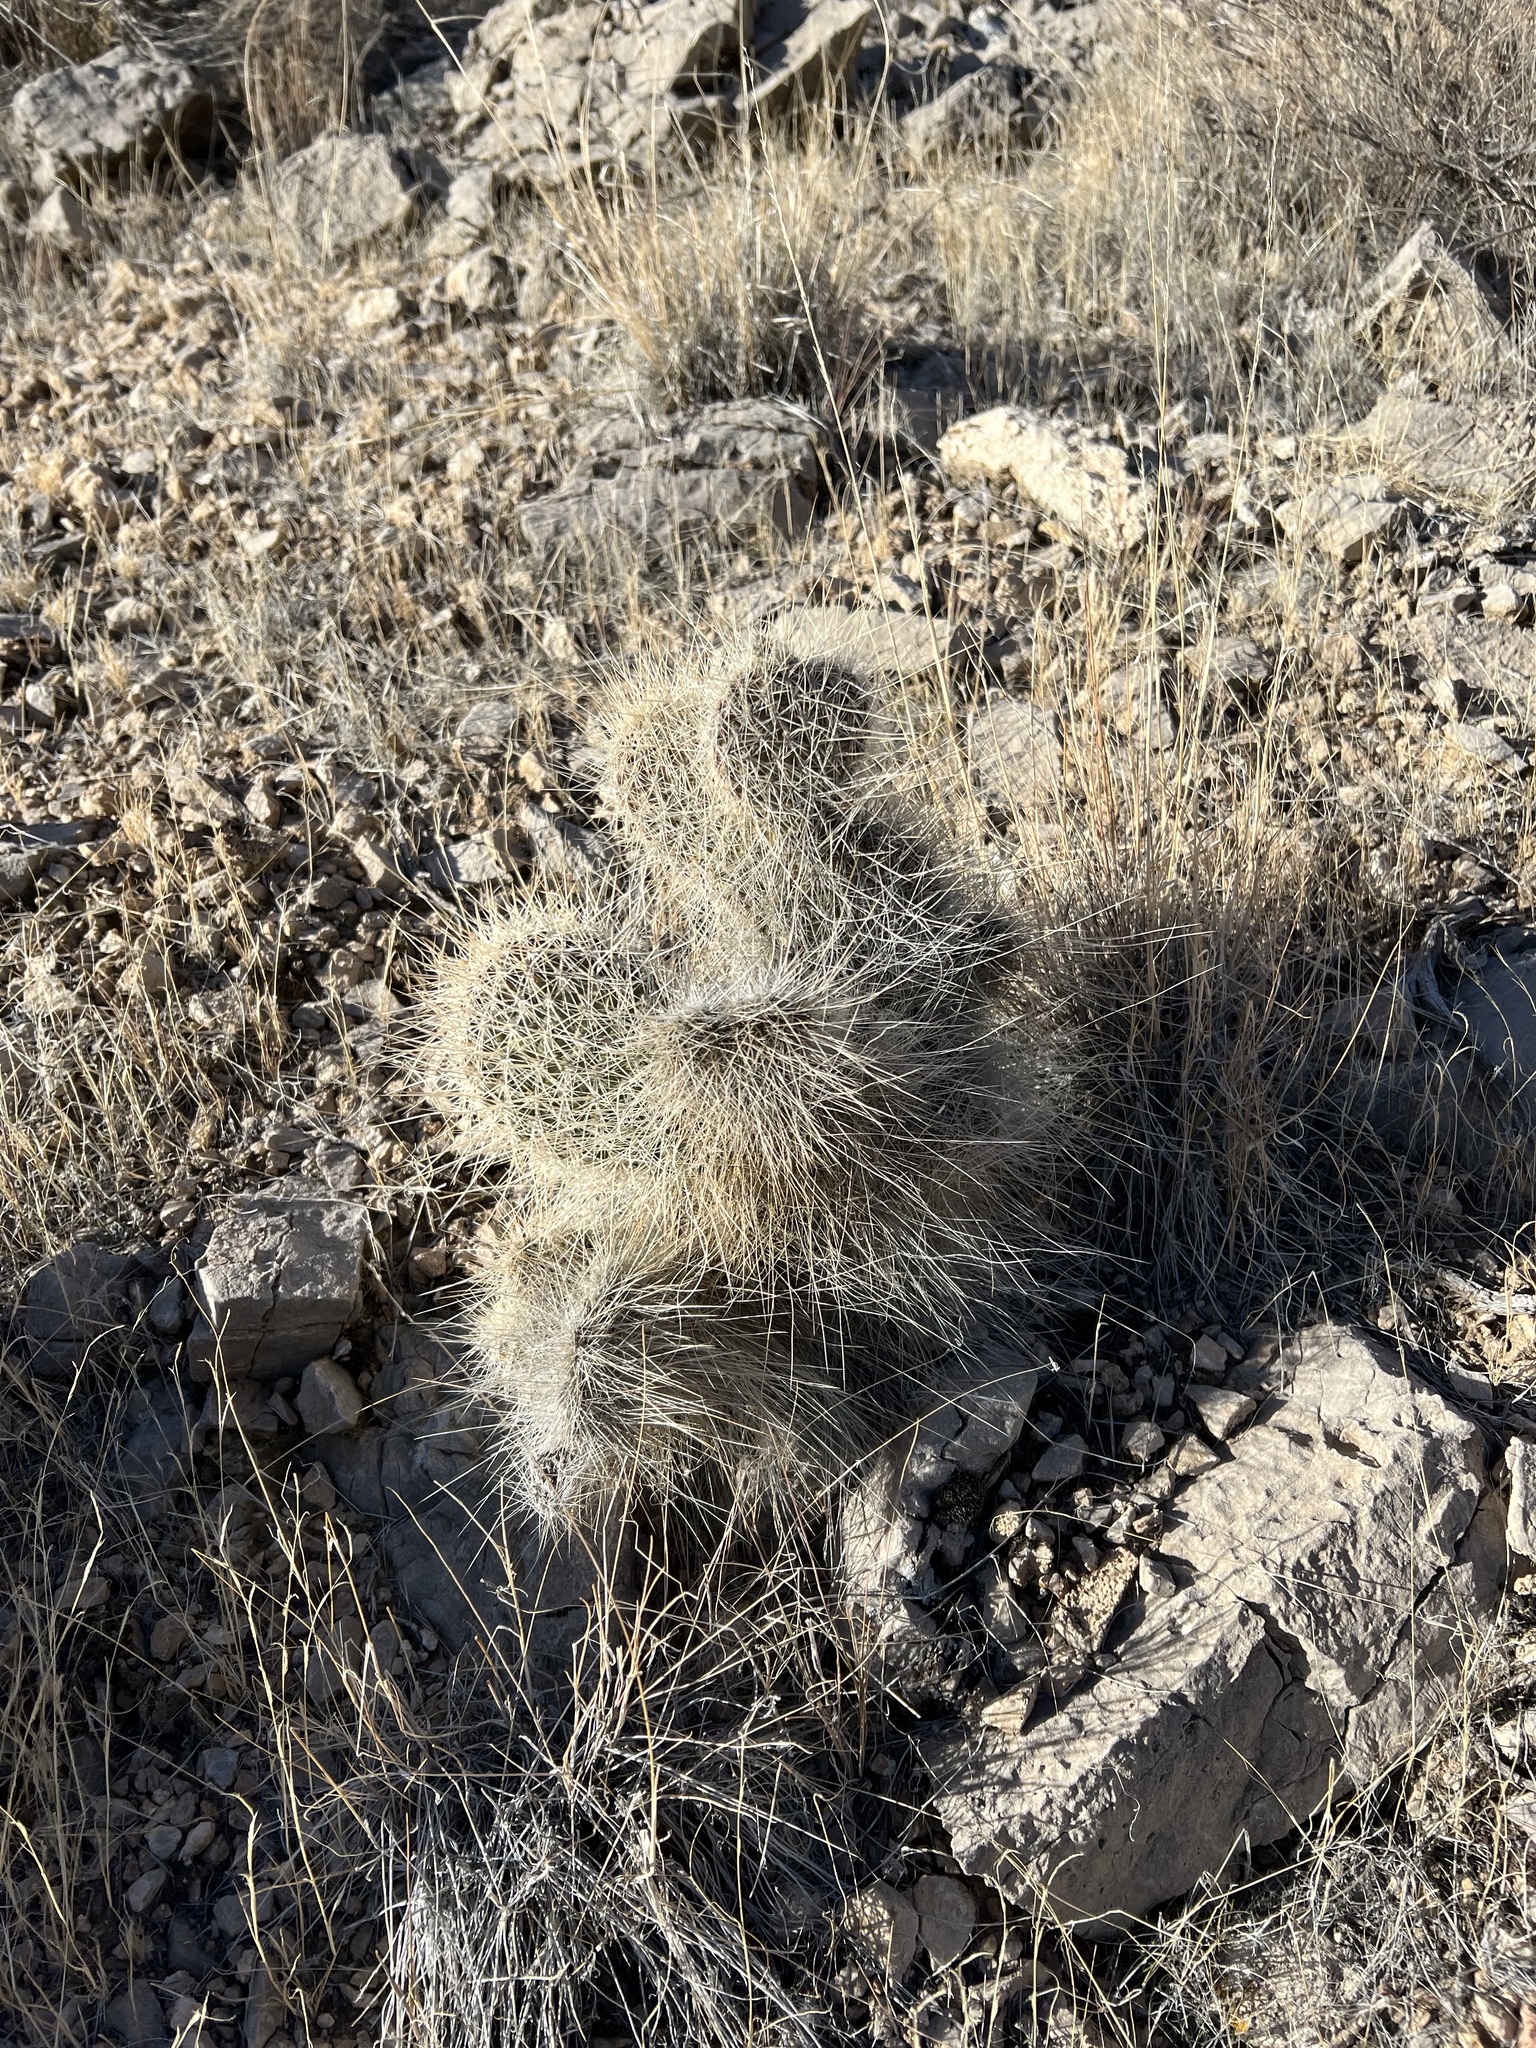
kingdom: Plantae
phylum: Tracheophyta
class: Magnoliopsida
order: Caryophyllales
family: Cactaceae
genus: Opuntia
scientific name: Opuntia polyacantha
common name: Plains prickly-pear
